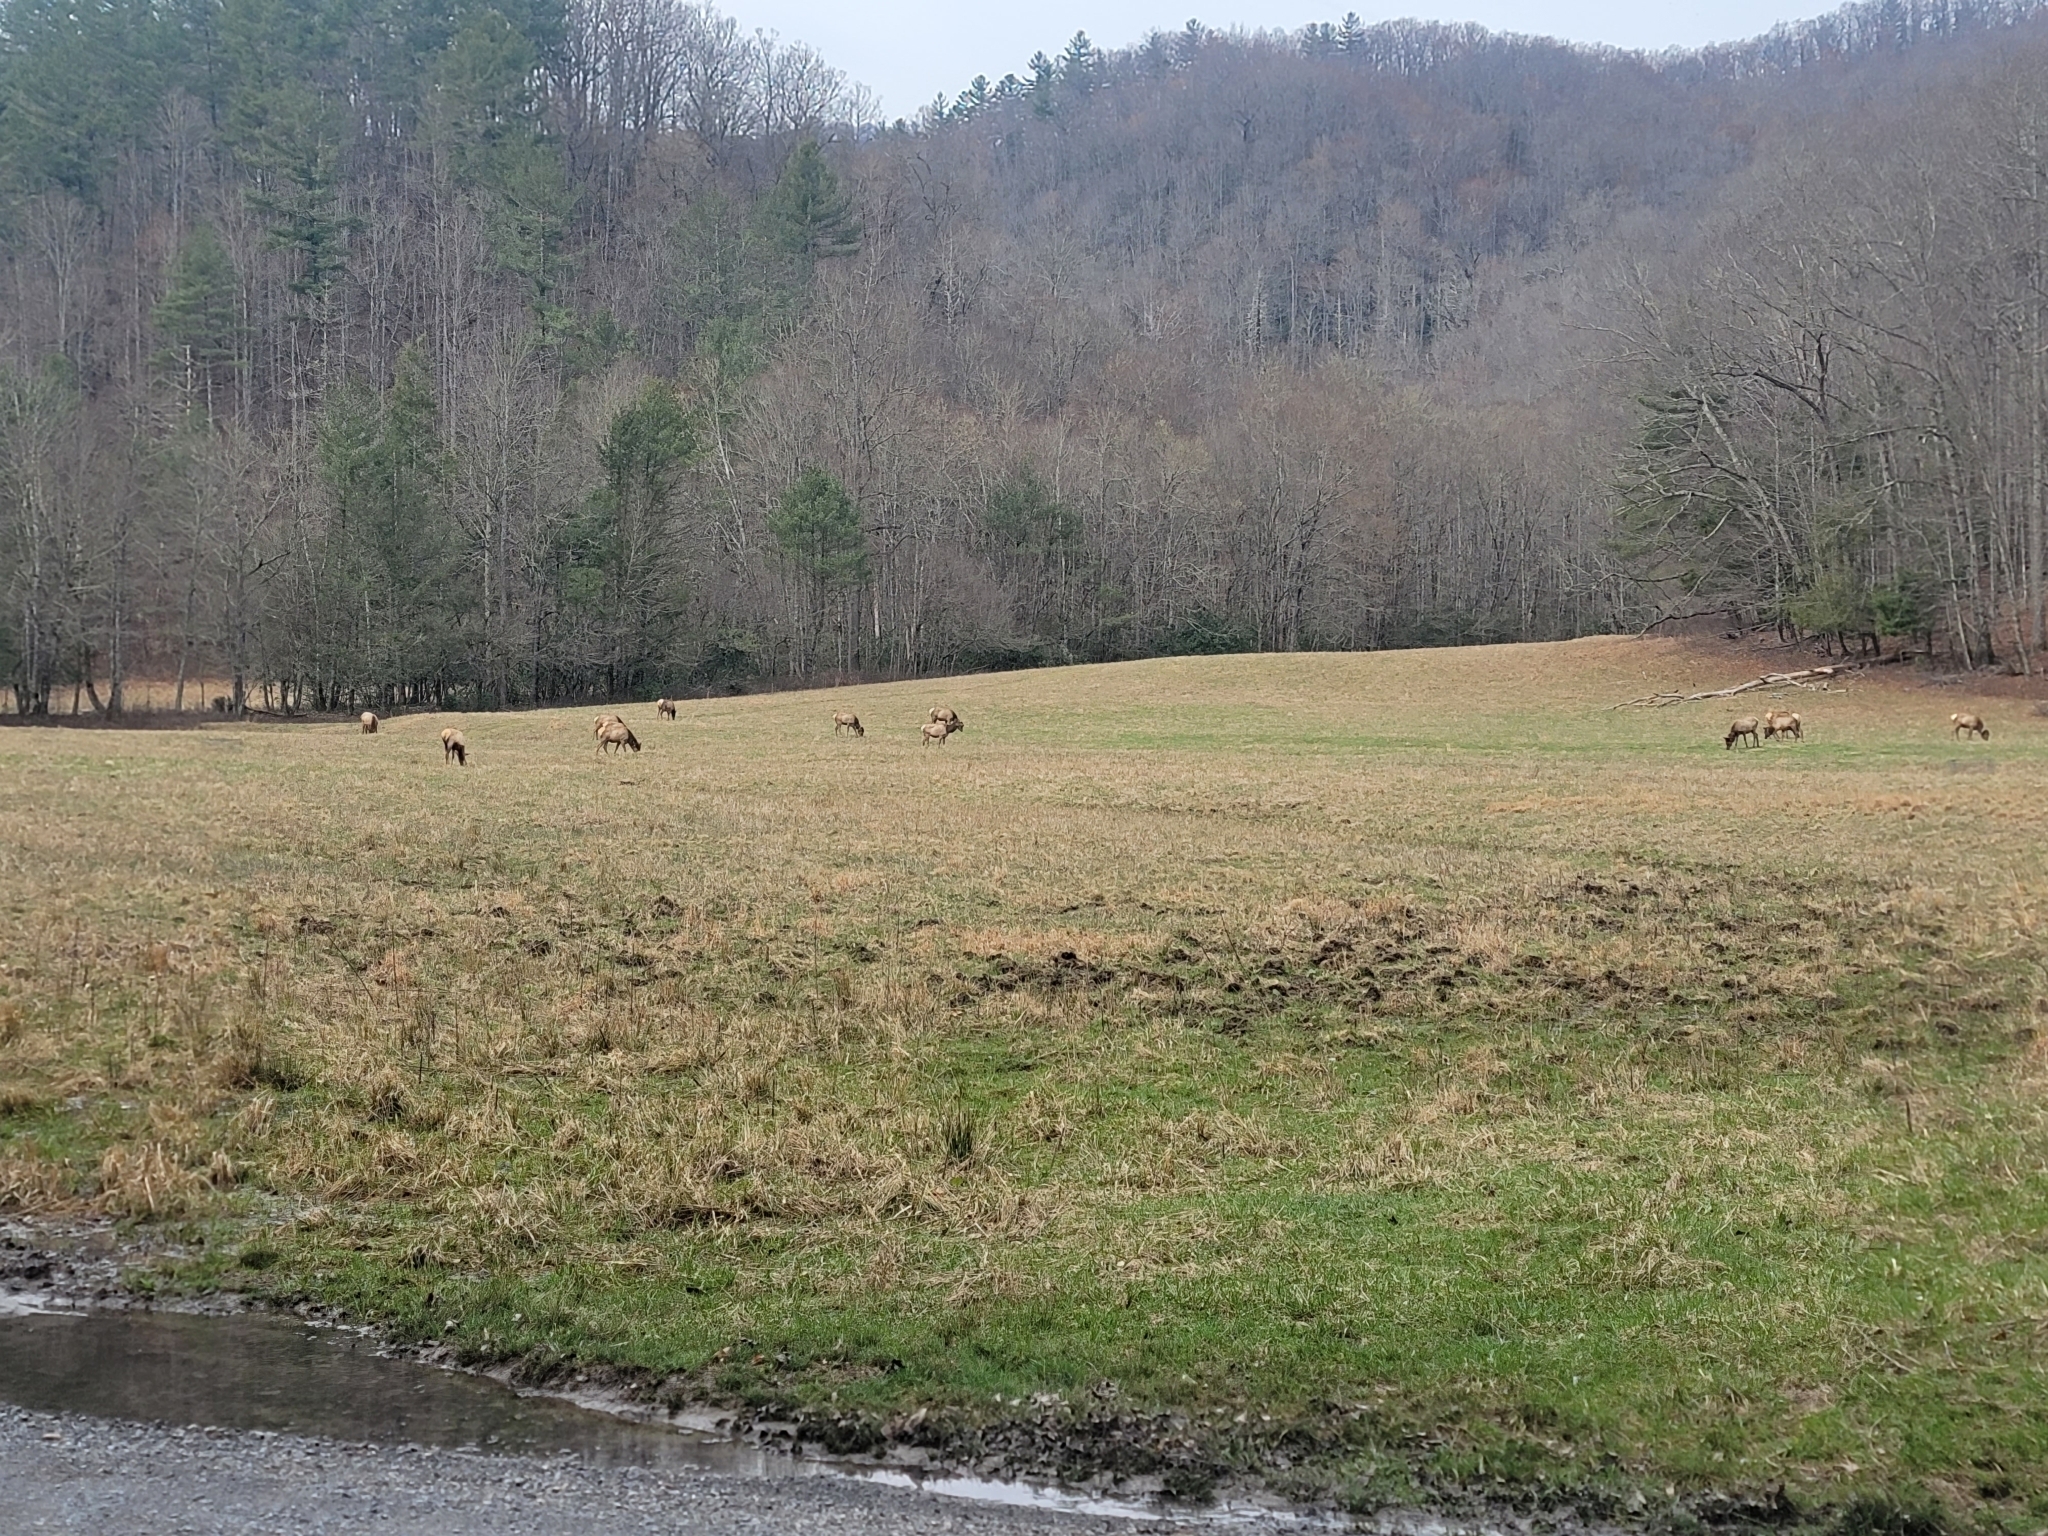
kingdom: Animalia
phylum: Chordata
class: Mammalia
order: Artiodactyla
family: Cervidae
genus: Cervus
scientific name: Cervus elaphus
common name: Red deer
